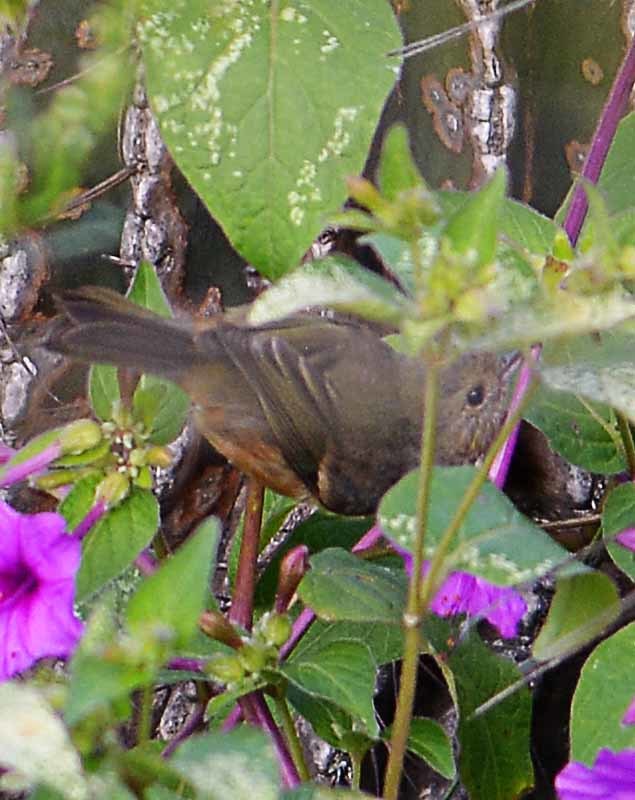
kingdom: Animalia
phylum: Chordata
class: Aves
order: Passeriformes
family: Thraupidae
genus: Diglossa
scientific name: Diglossa baritula
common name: Cinnamon-bellied flowerpiercer
